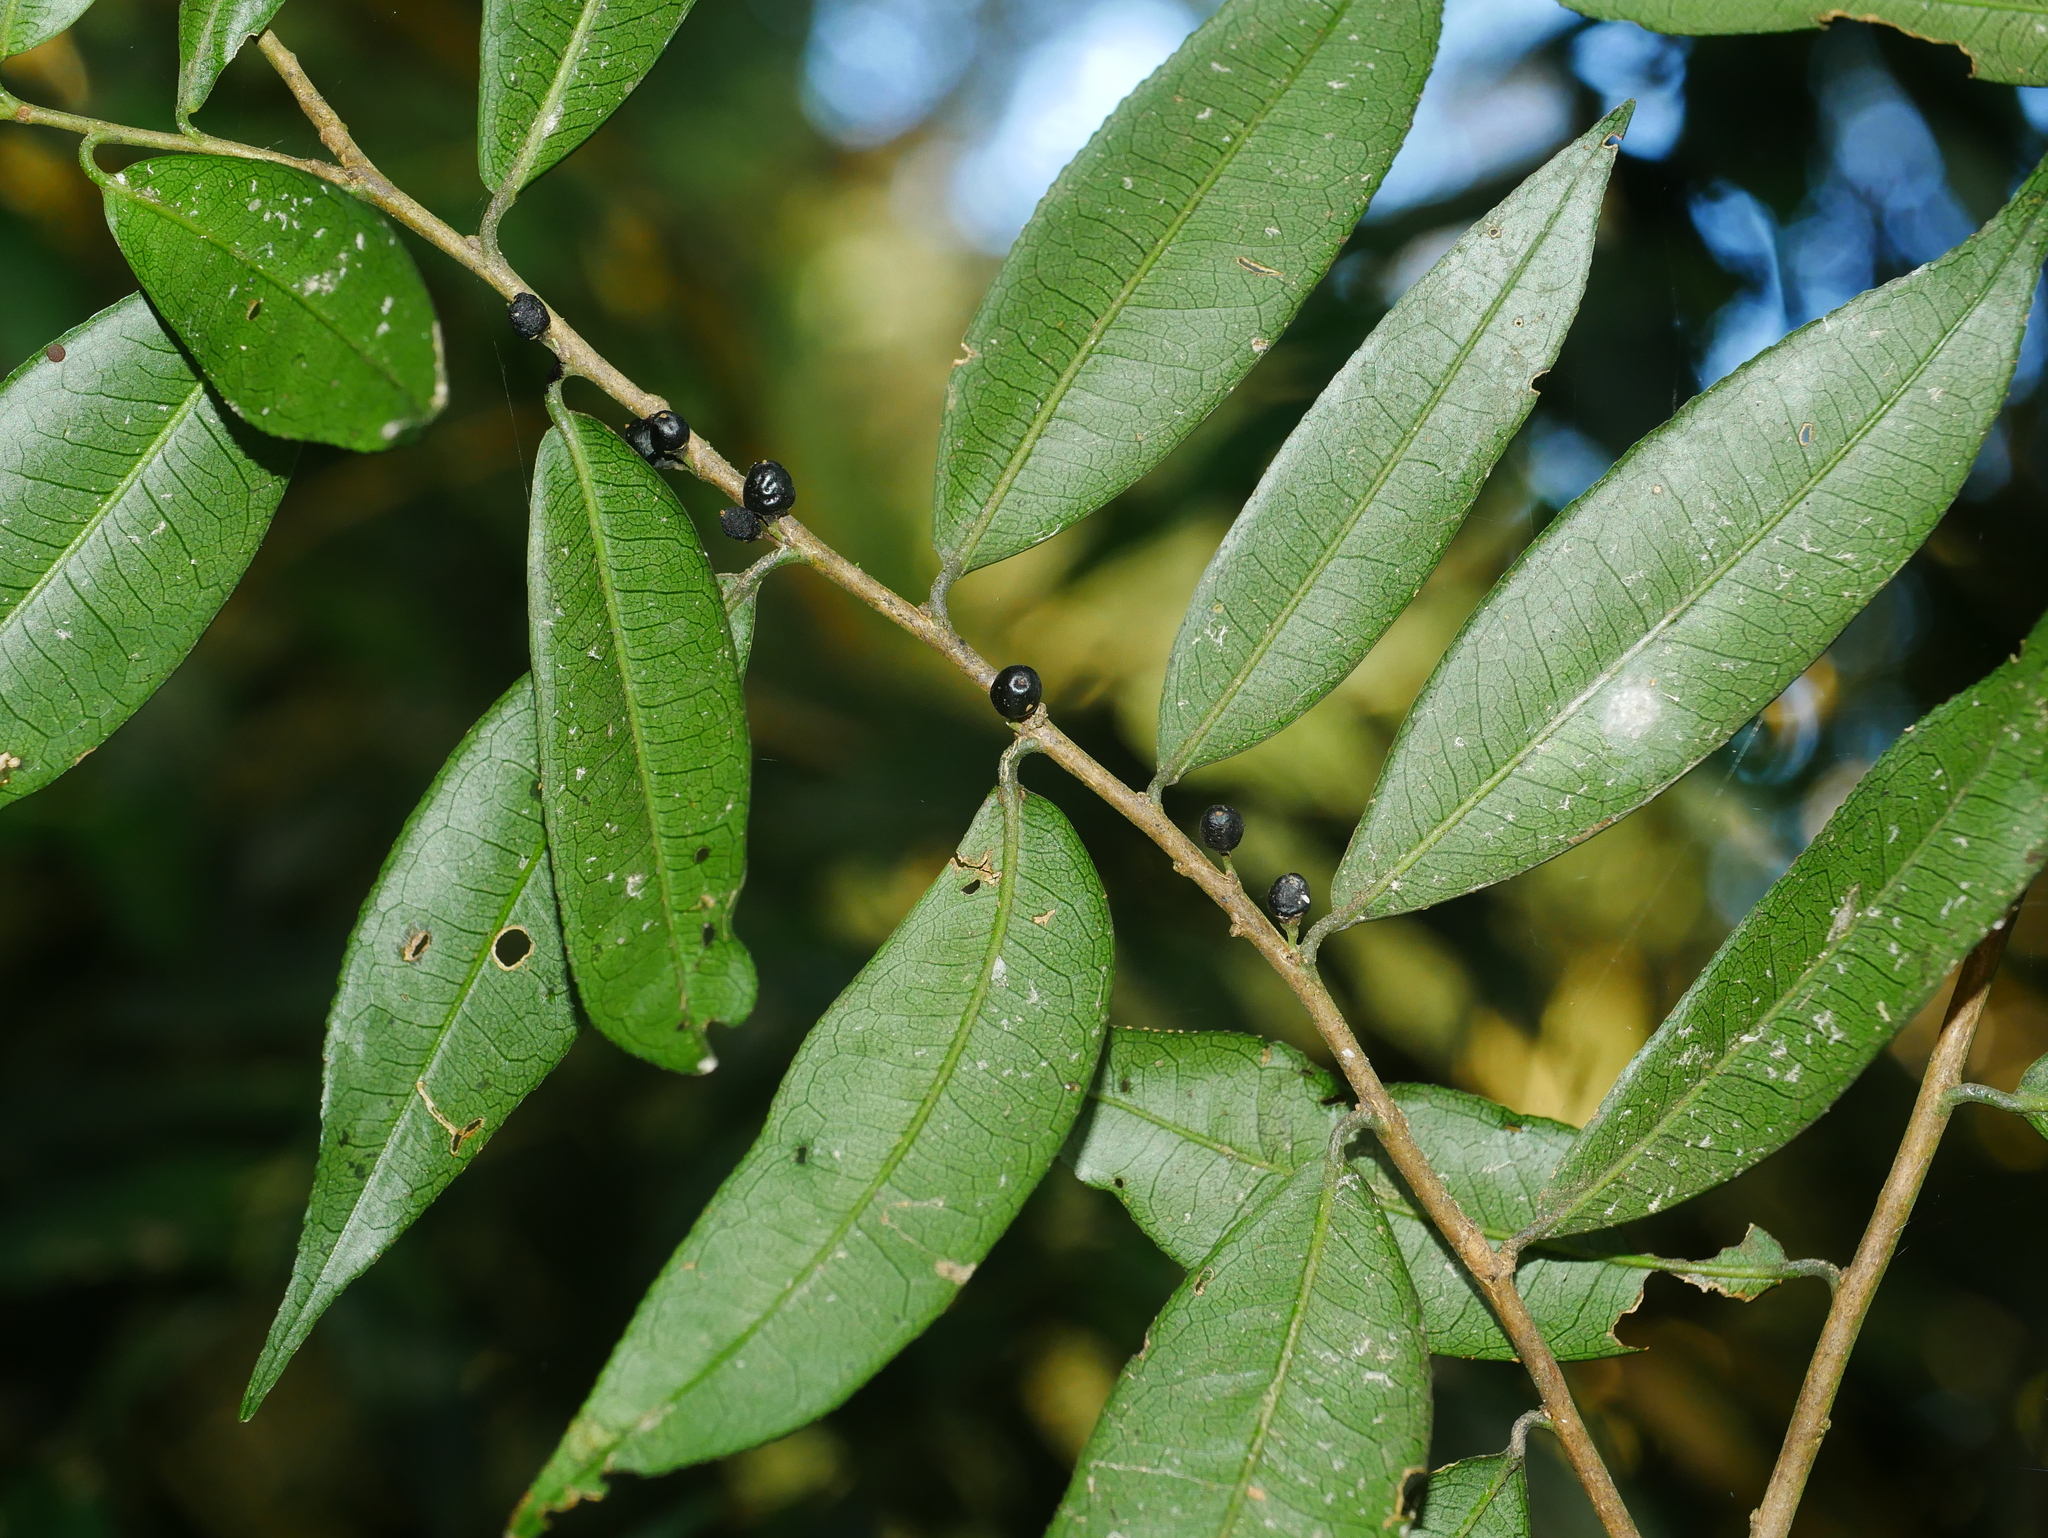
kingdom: Plantae
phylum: Tracheophyta
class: Magnoliopsida
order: Ericales
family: Pentaphylacaceae
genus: Eurya
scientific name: Eurya rengechiensis
